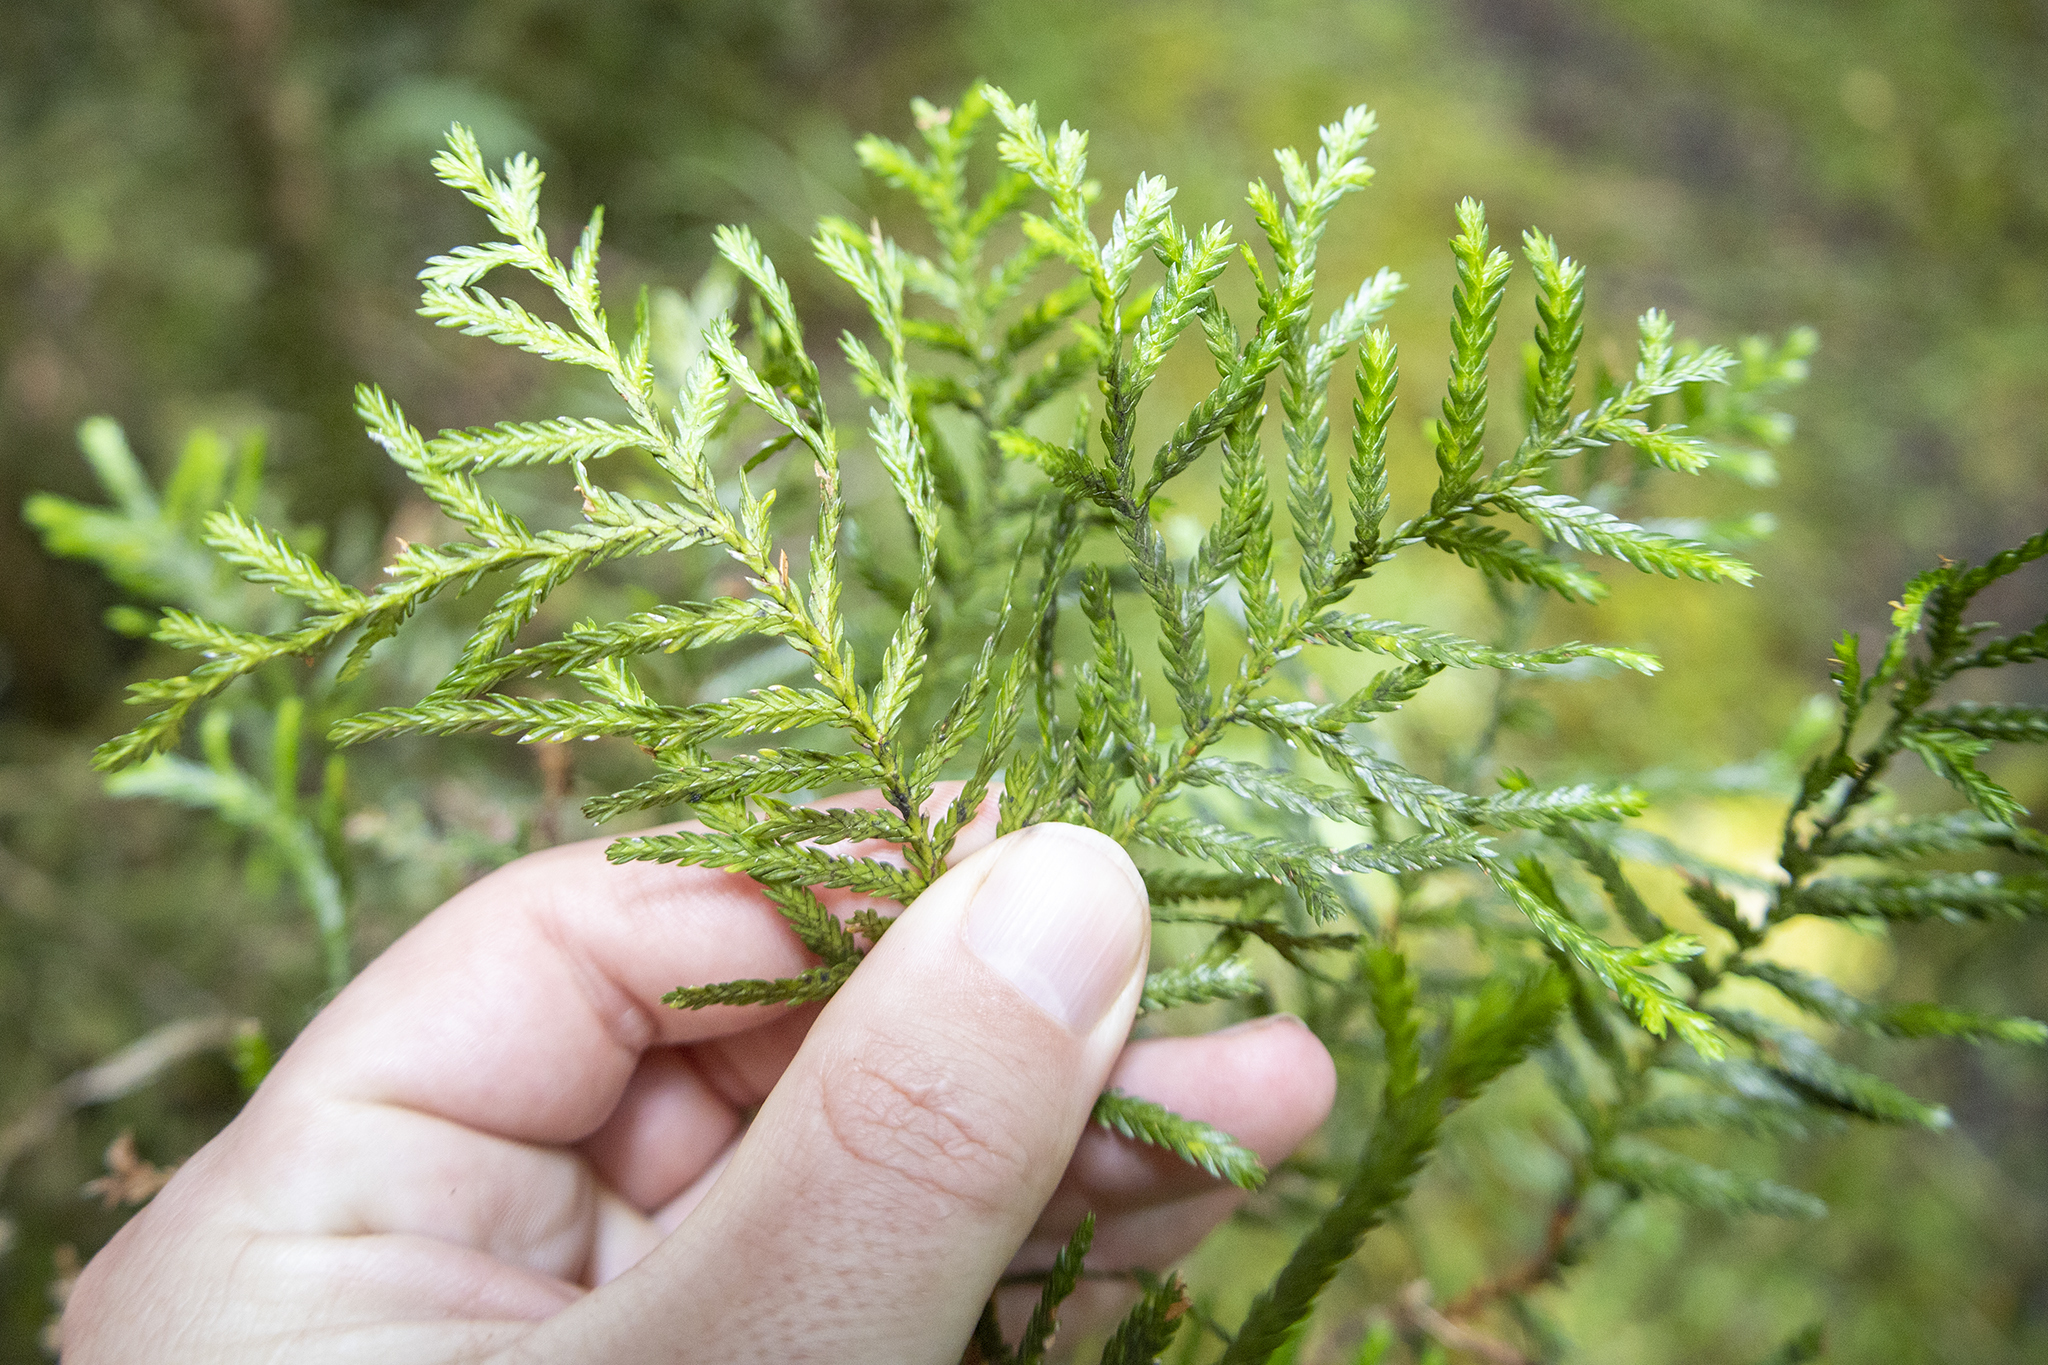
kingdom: Plantae
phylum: Tracheophyta
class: Pinopsida
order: Pinales
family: Cupressaceae
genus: Libocedrus
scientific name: Libocedrus bidwillii
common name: Cedar
